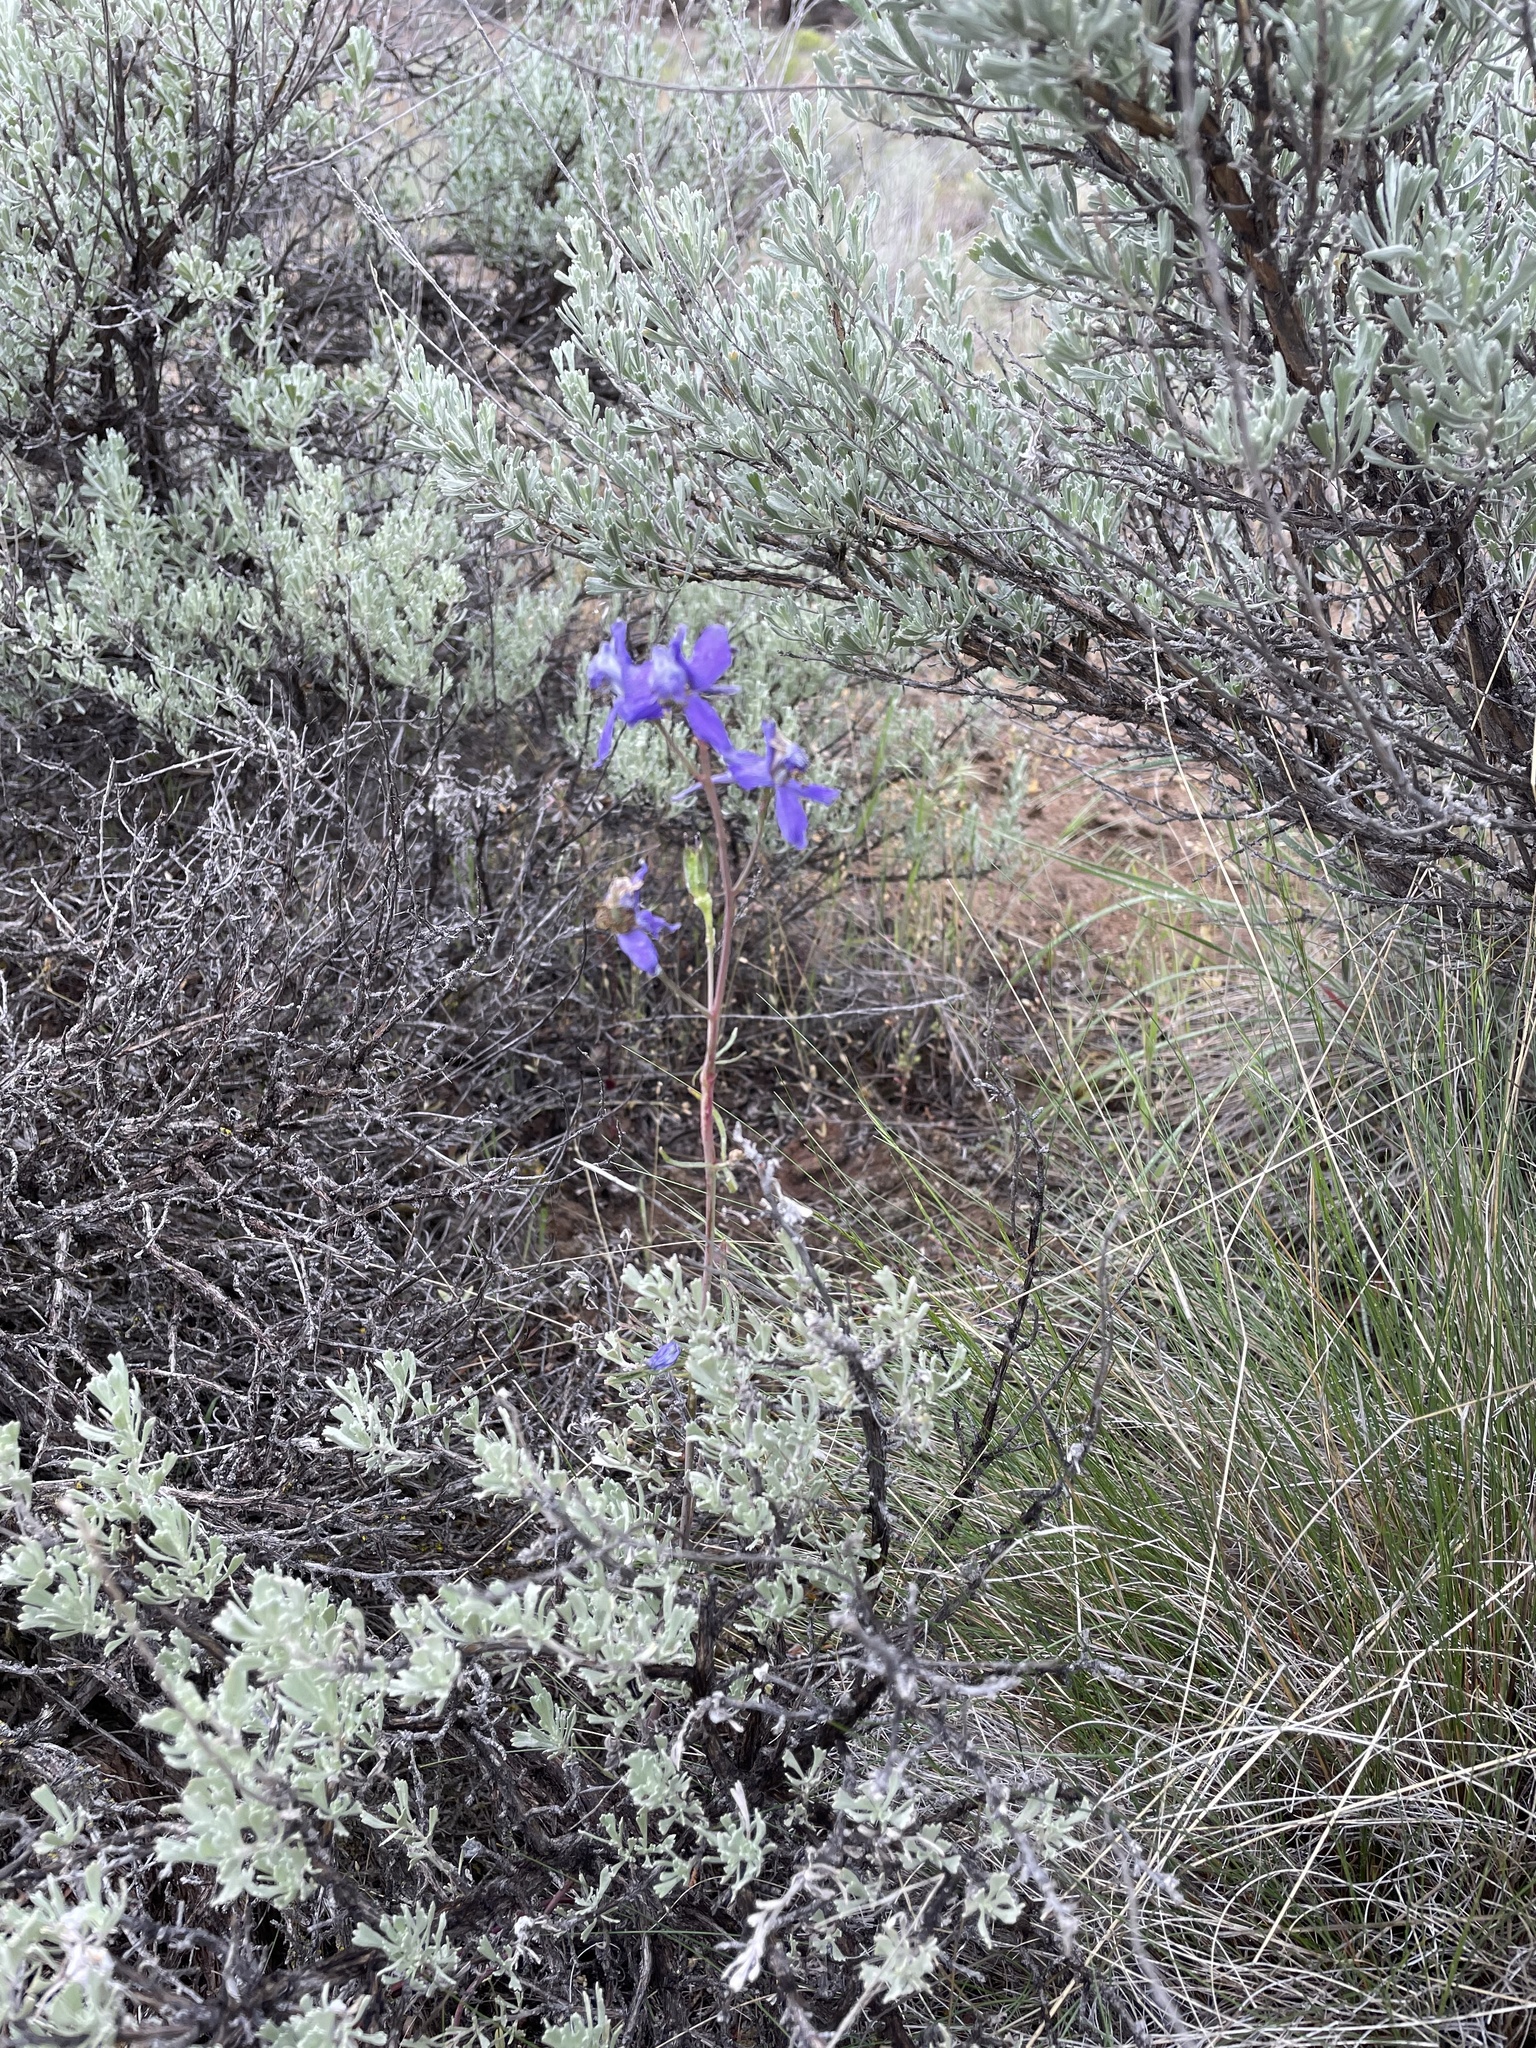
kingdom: Plantae
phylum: Tracheophyta
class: Magnoliopsida
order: Ranunculales
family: Ranunculaceae
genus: Delphinium
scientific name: Delphinium nuttallianum
